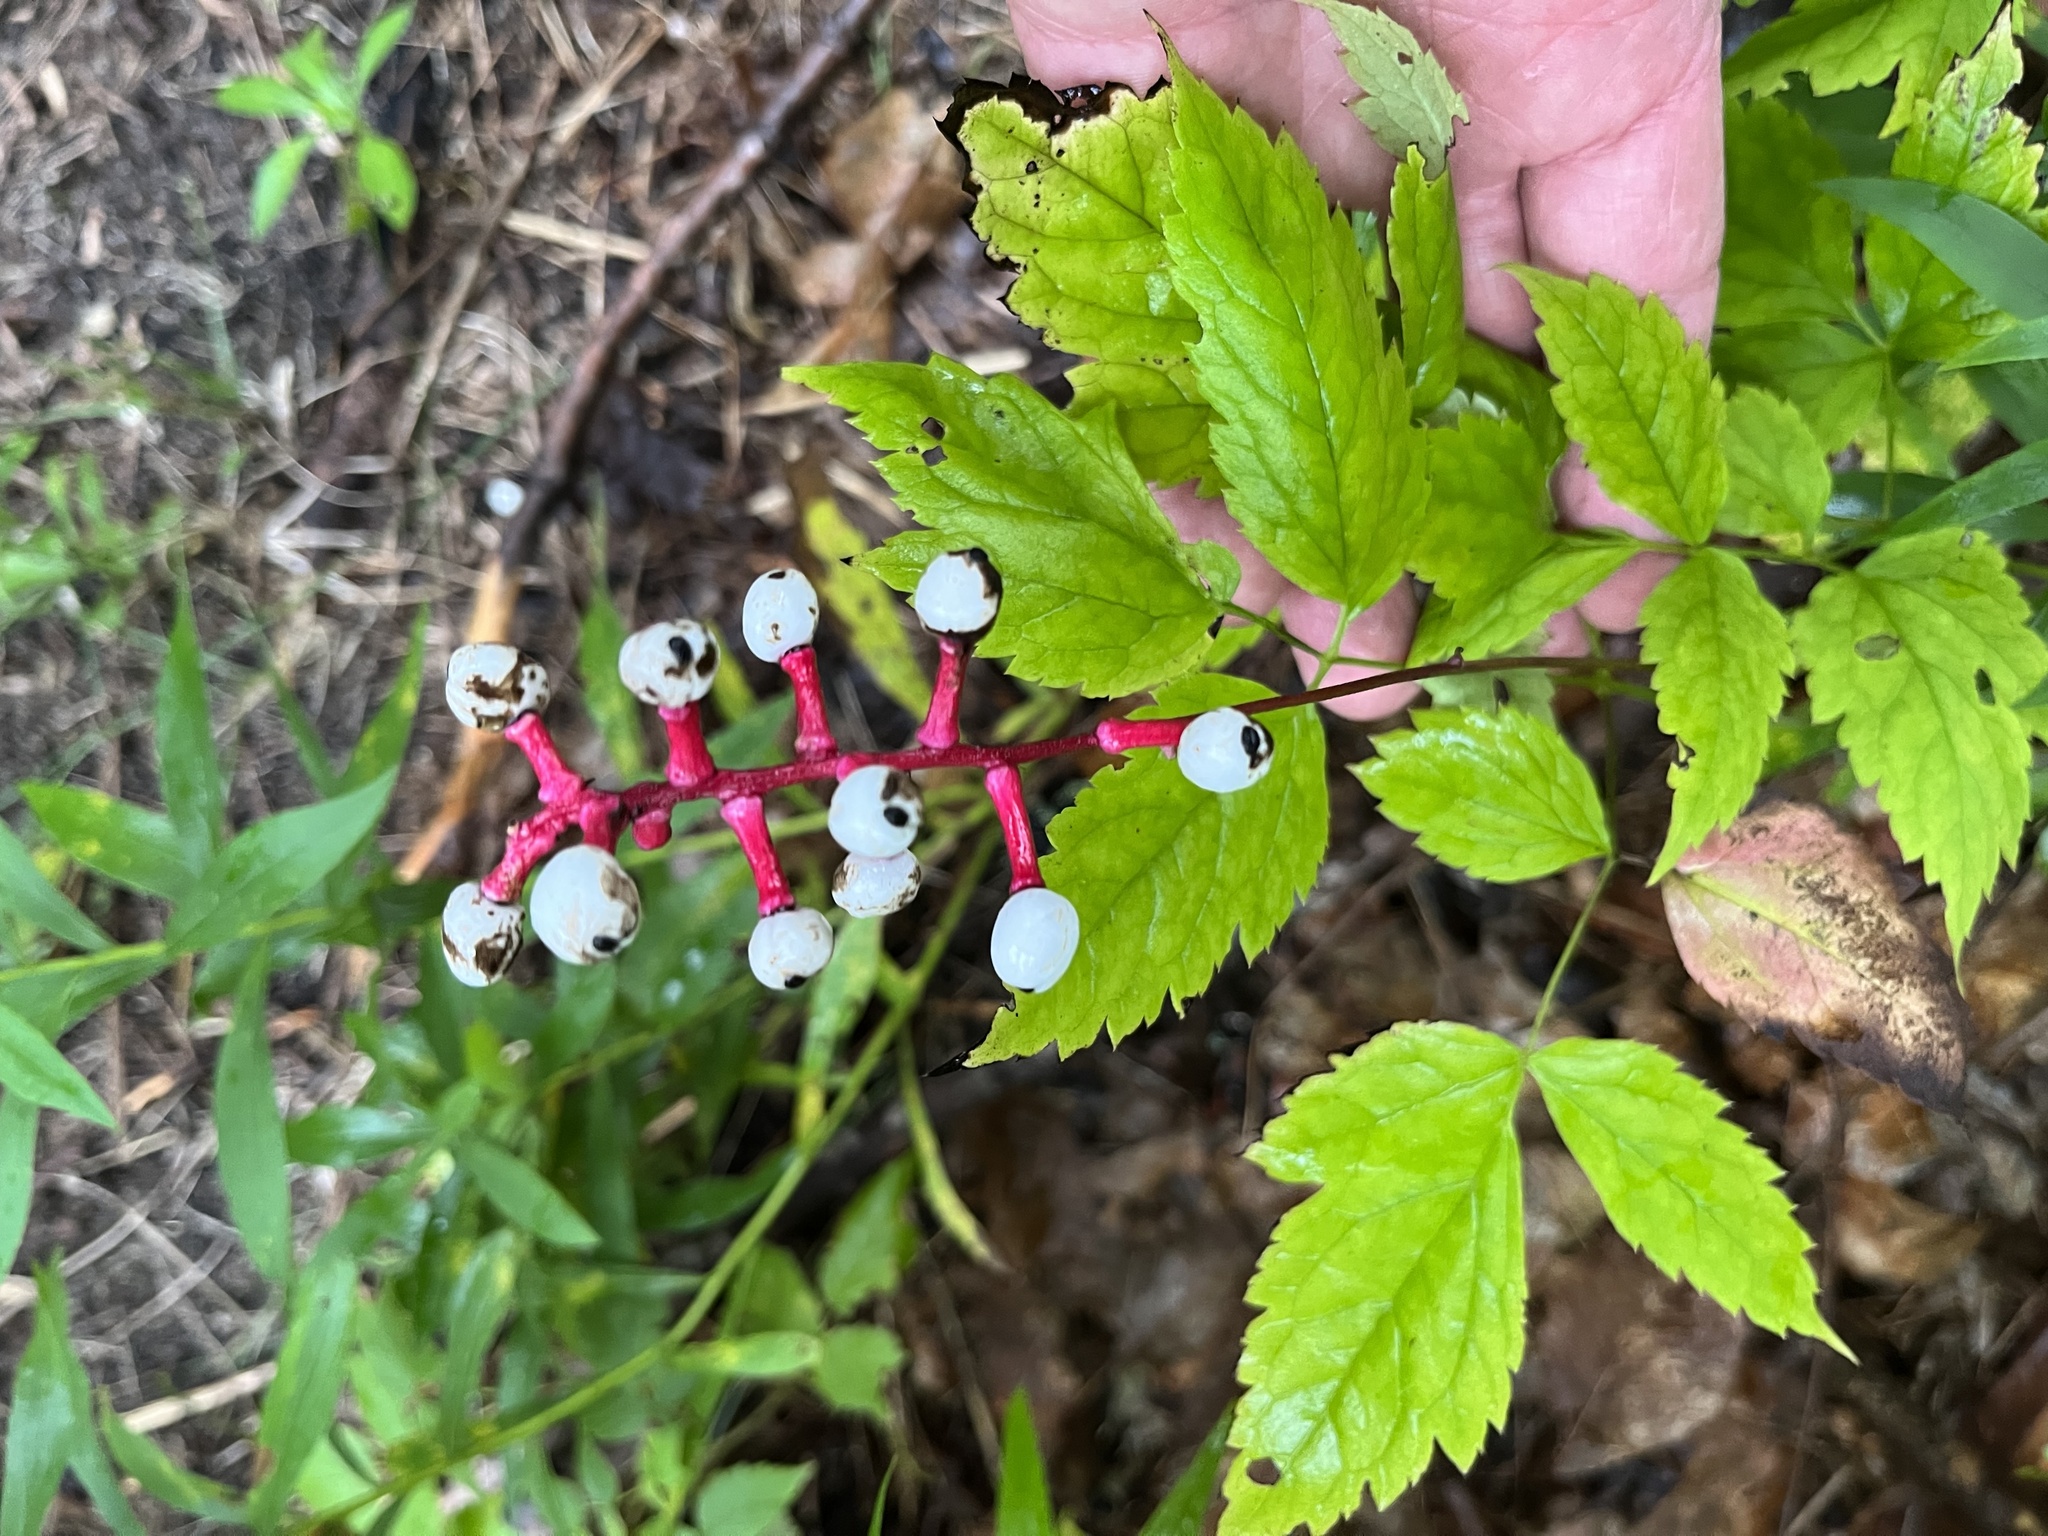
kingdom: Plantae
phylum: Tracheophyta
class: Magnoliopsida
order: Ranunculales
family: Ranunculaceae
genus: Actaea
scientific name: Actaea pachypoda
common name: Doll's-eyes
